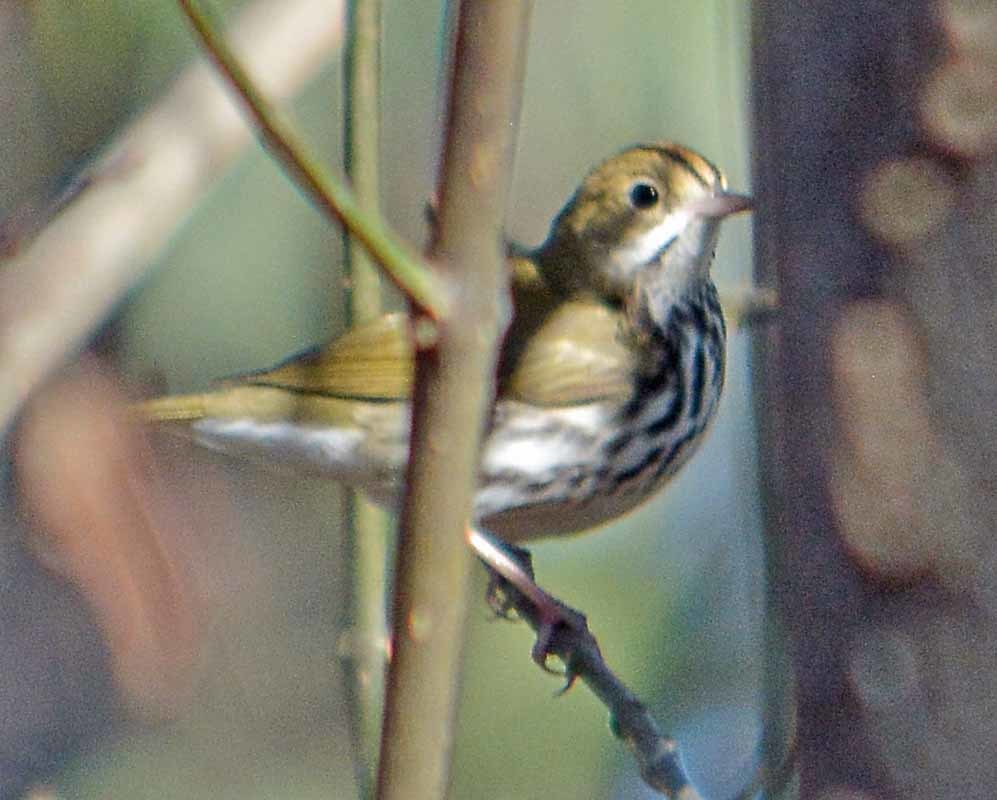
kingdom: Animalia
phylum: Chordata
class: Aves
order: Passeriformes
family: Parulidae
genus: Seiurus
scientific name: Seiurus aurocapilla
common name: Ovenbird
